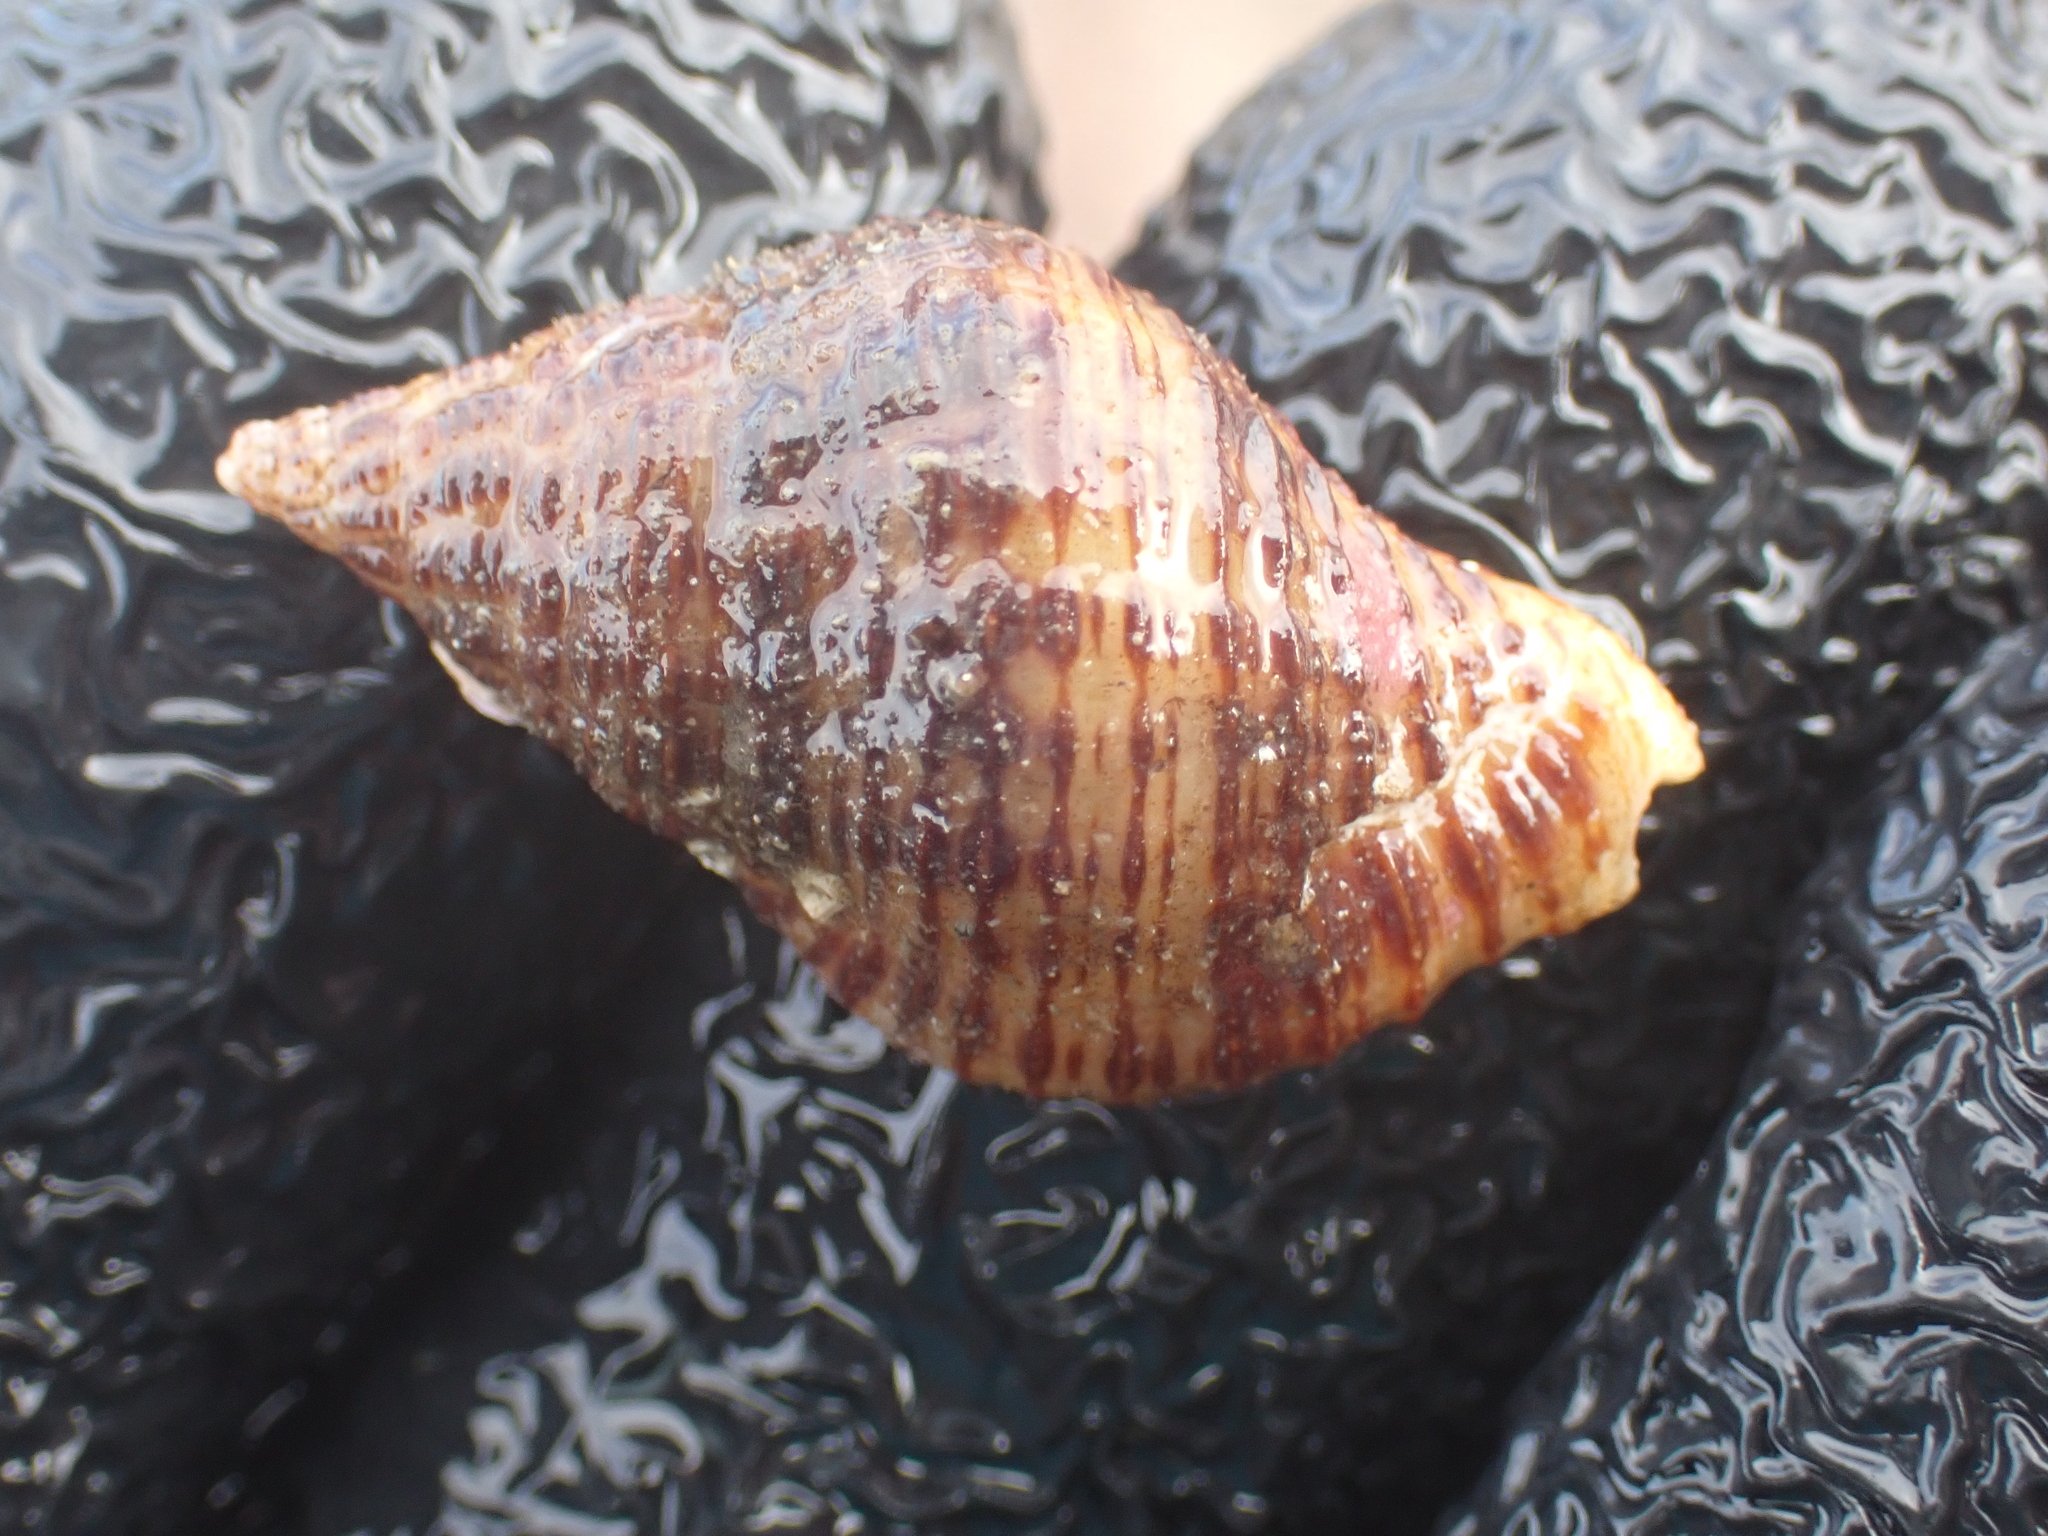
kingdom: Animalia
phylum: Mollusca
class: Gastropoda
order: Neogastropoda
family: Pisaniidae
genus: Pollia
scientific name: Pollia fumosa
